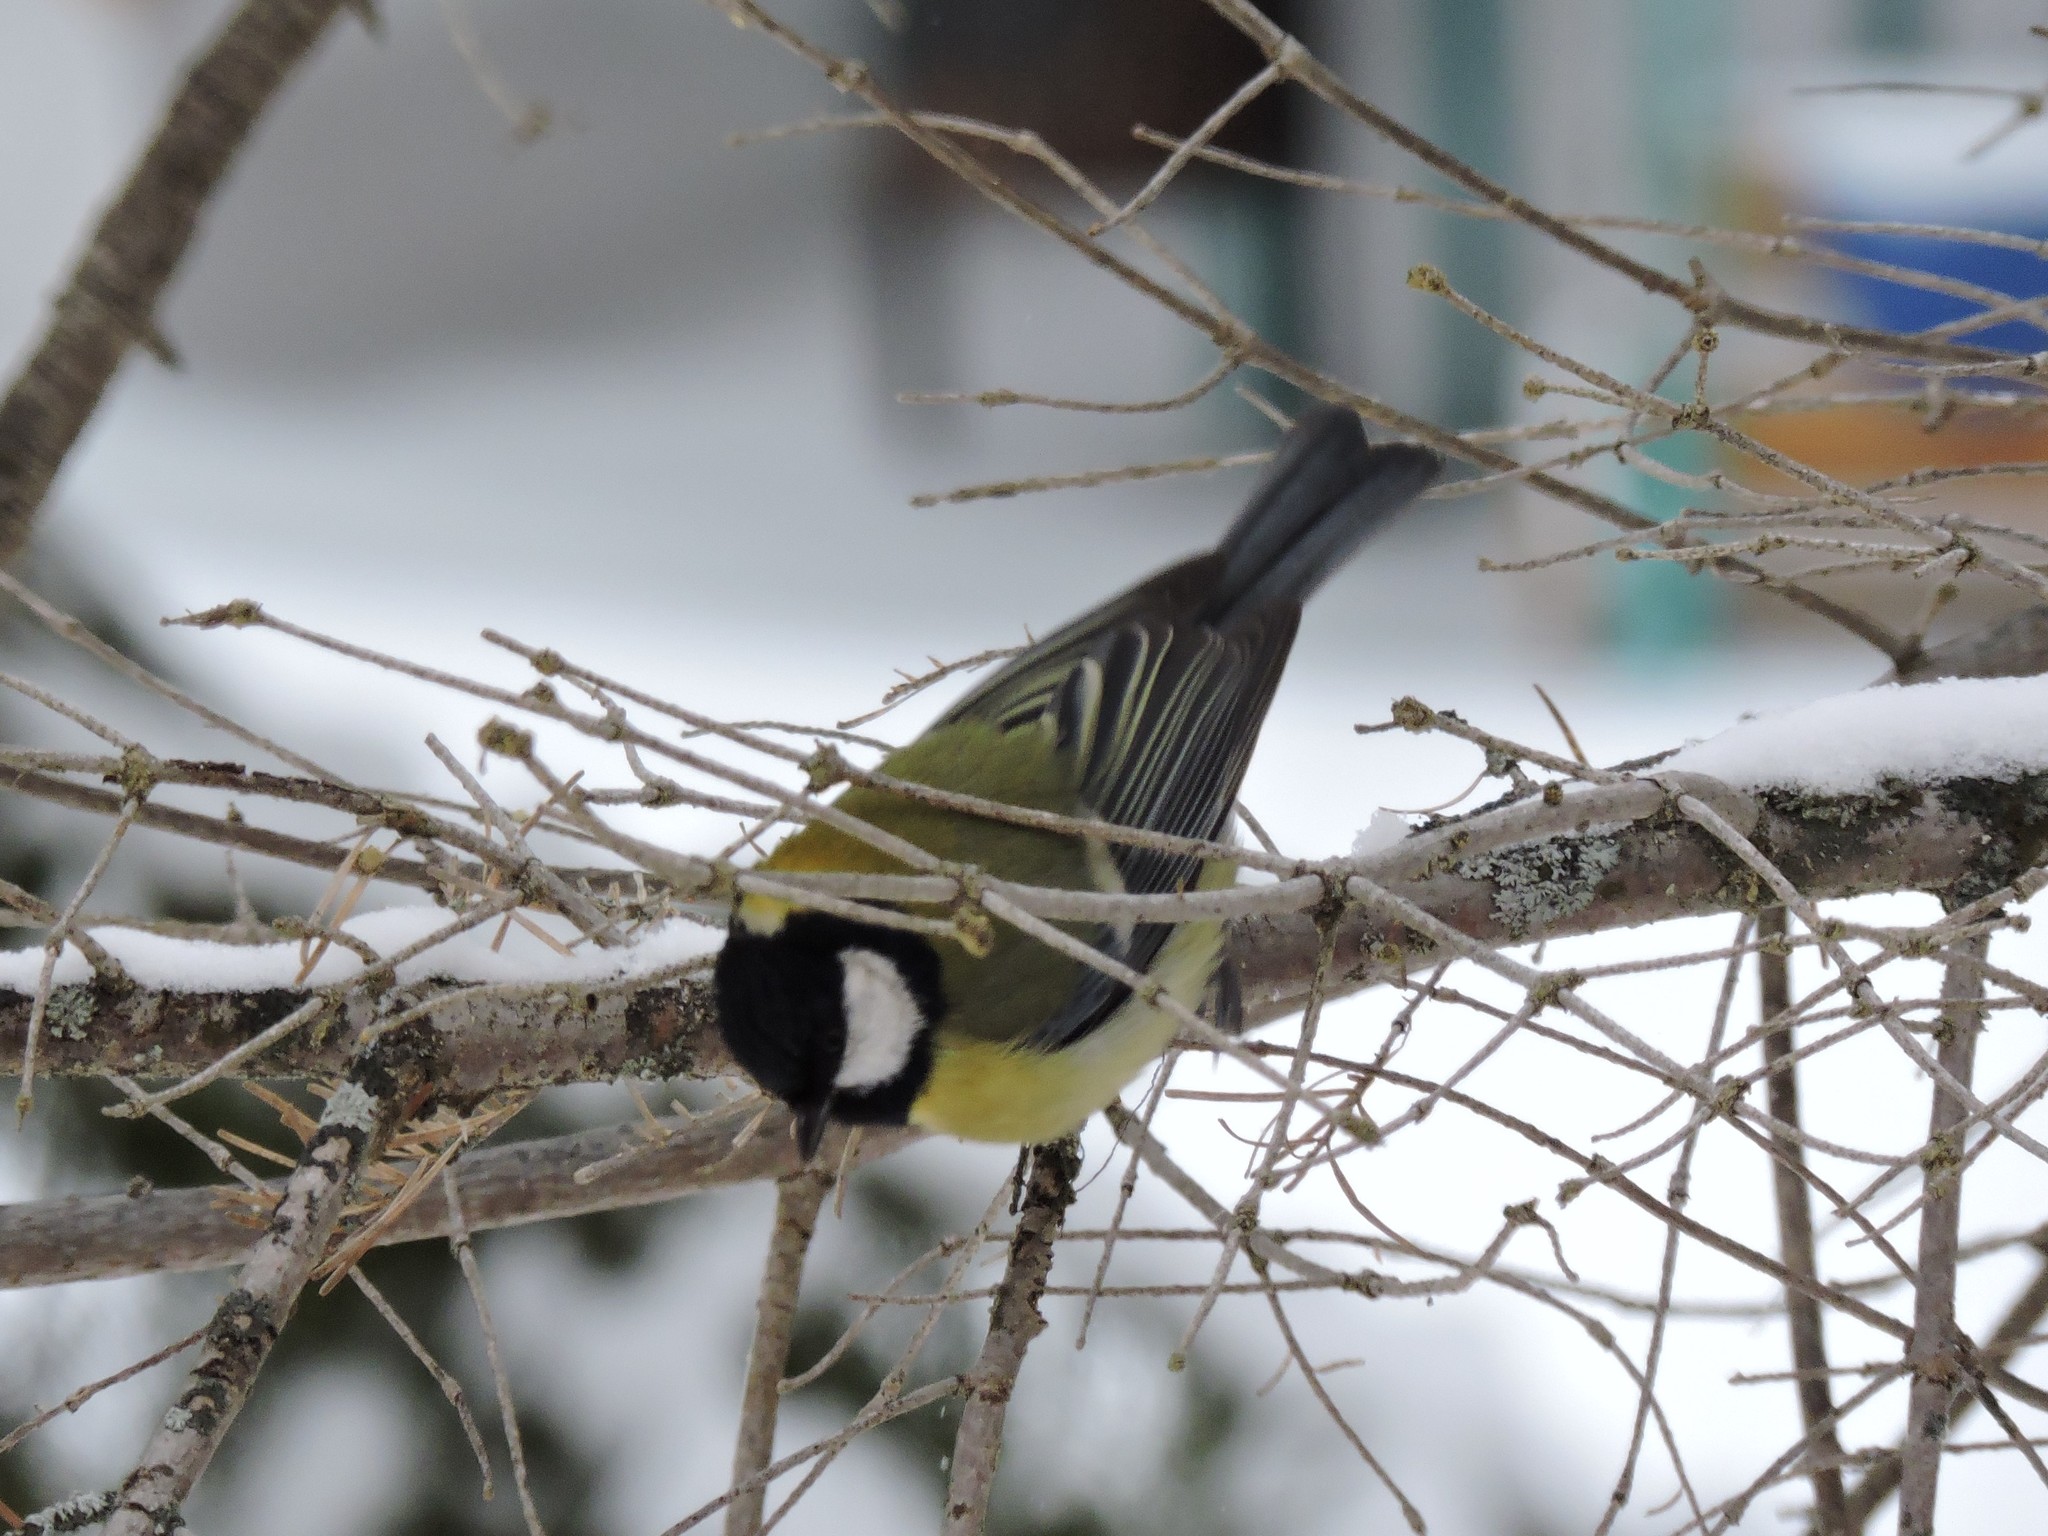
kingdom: Animalia
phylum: Chordata
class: Aves
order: Passeriformes
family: Paridae
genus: Parus
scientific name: Parus major
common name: Great tit
